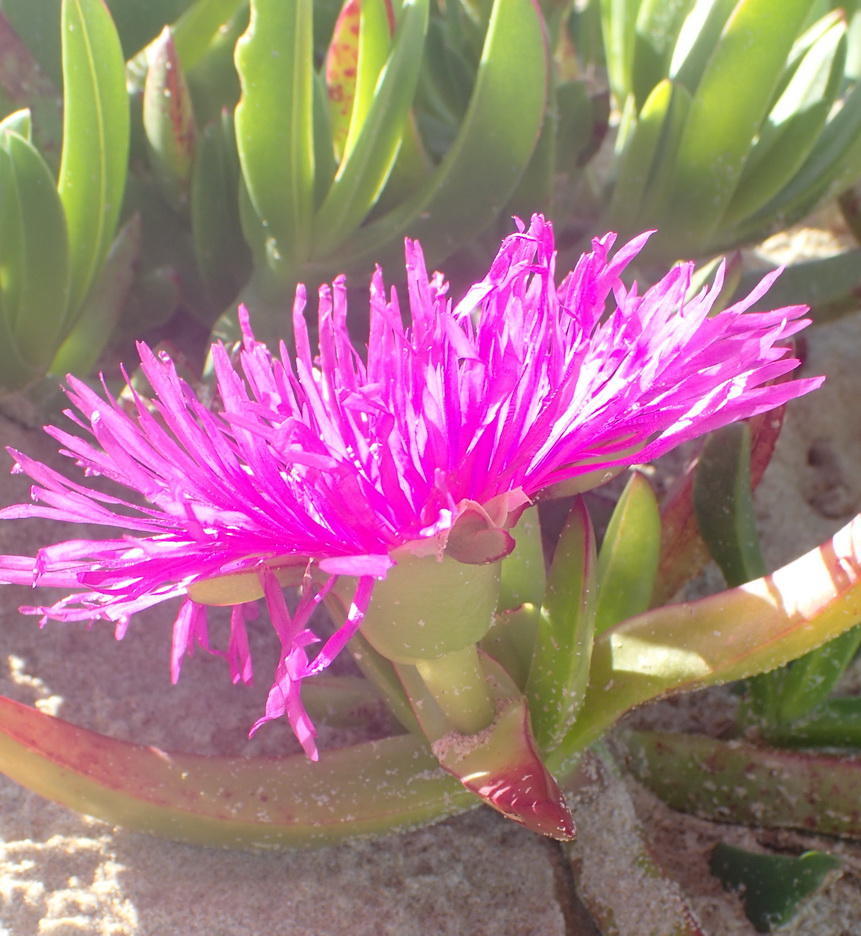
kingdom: Plantae
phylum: Tracheophyta
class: Magnoliopsida
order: Caryophyllales
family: Aizoaceae
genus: Carpobrotus
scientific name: Carpobrotus deliciosus
